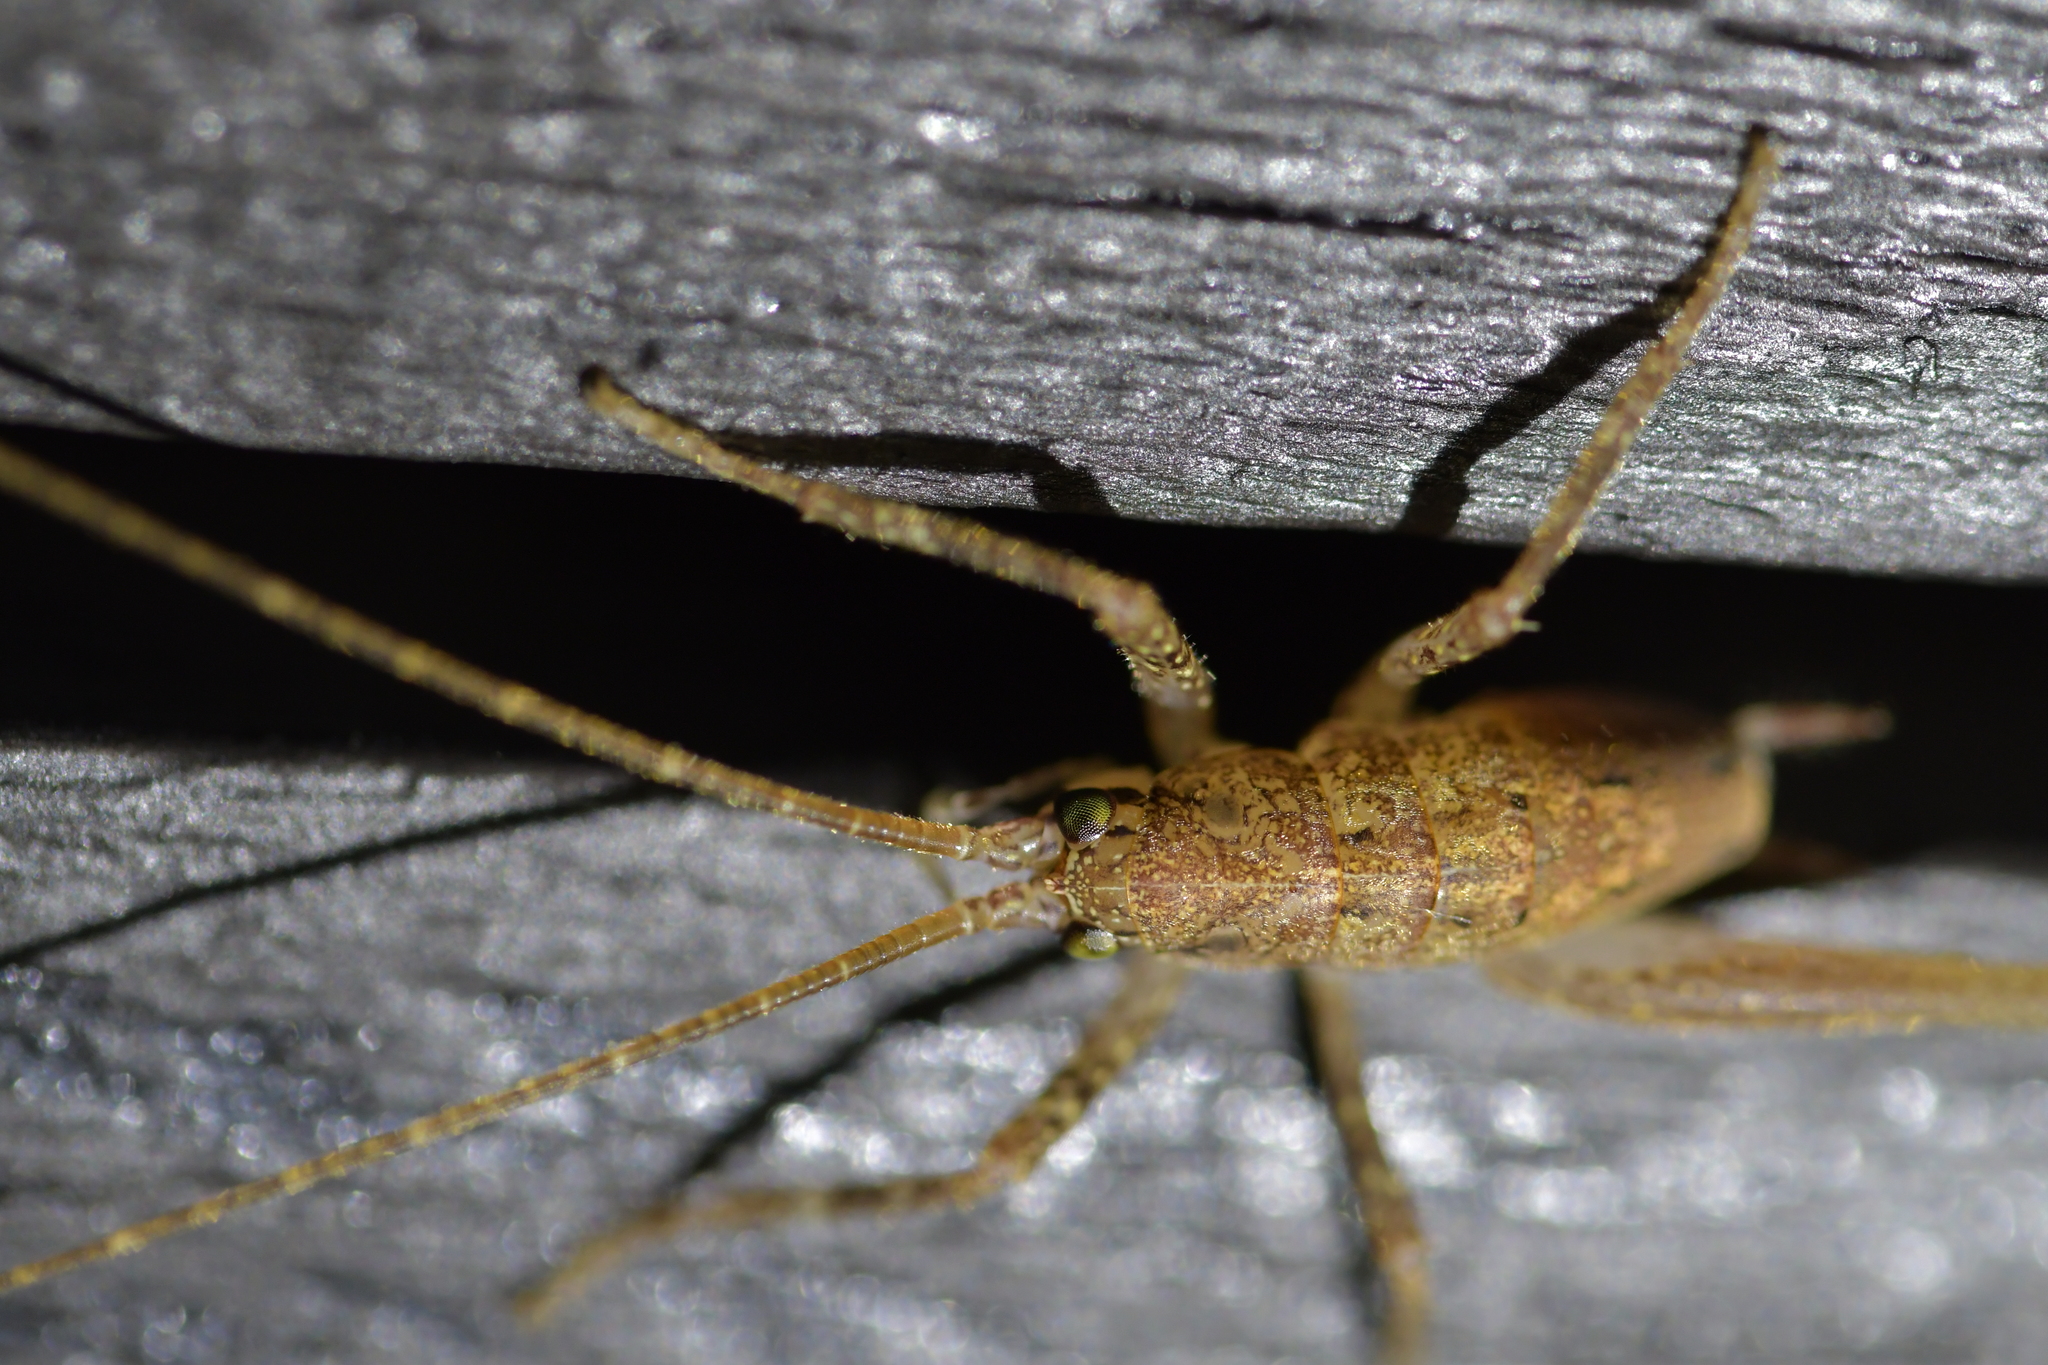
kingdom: Animalia
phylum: Arthropoda
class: Insecta
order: Orthoptera
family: Rhaphidophoridae
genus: Isoplectron
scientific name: Isoplectron armatum
